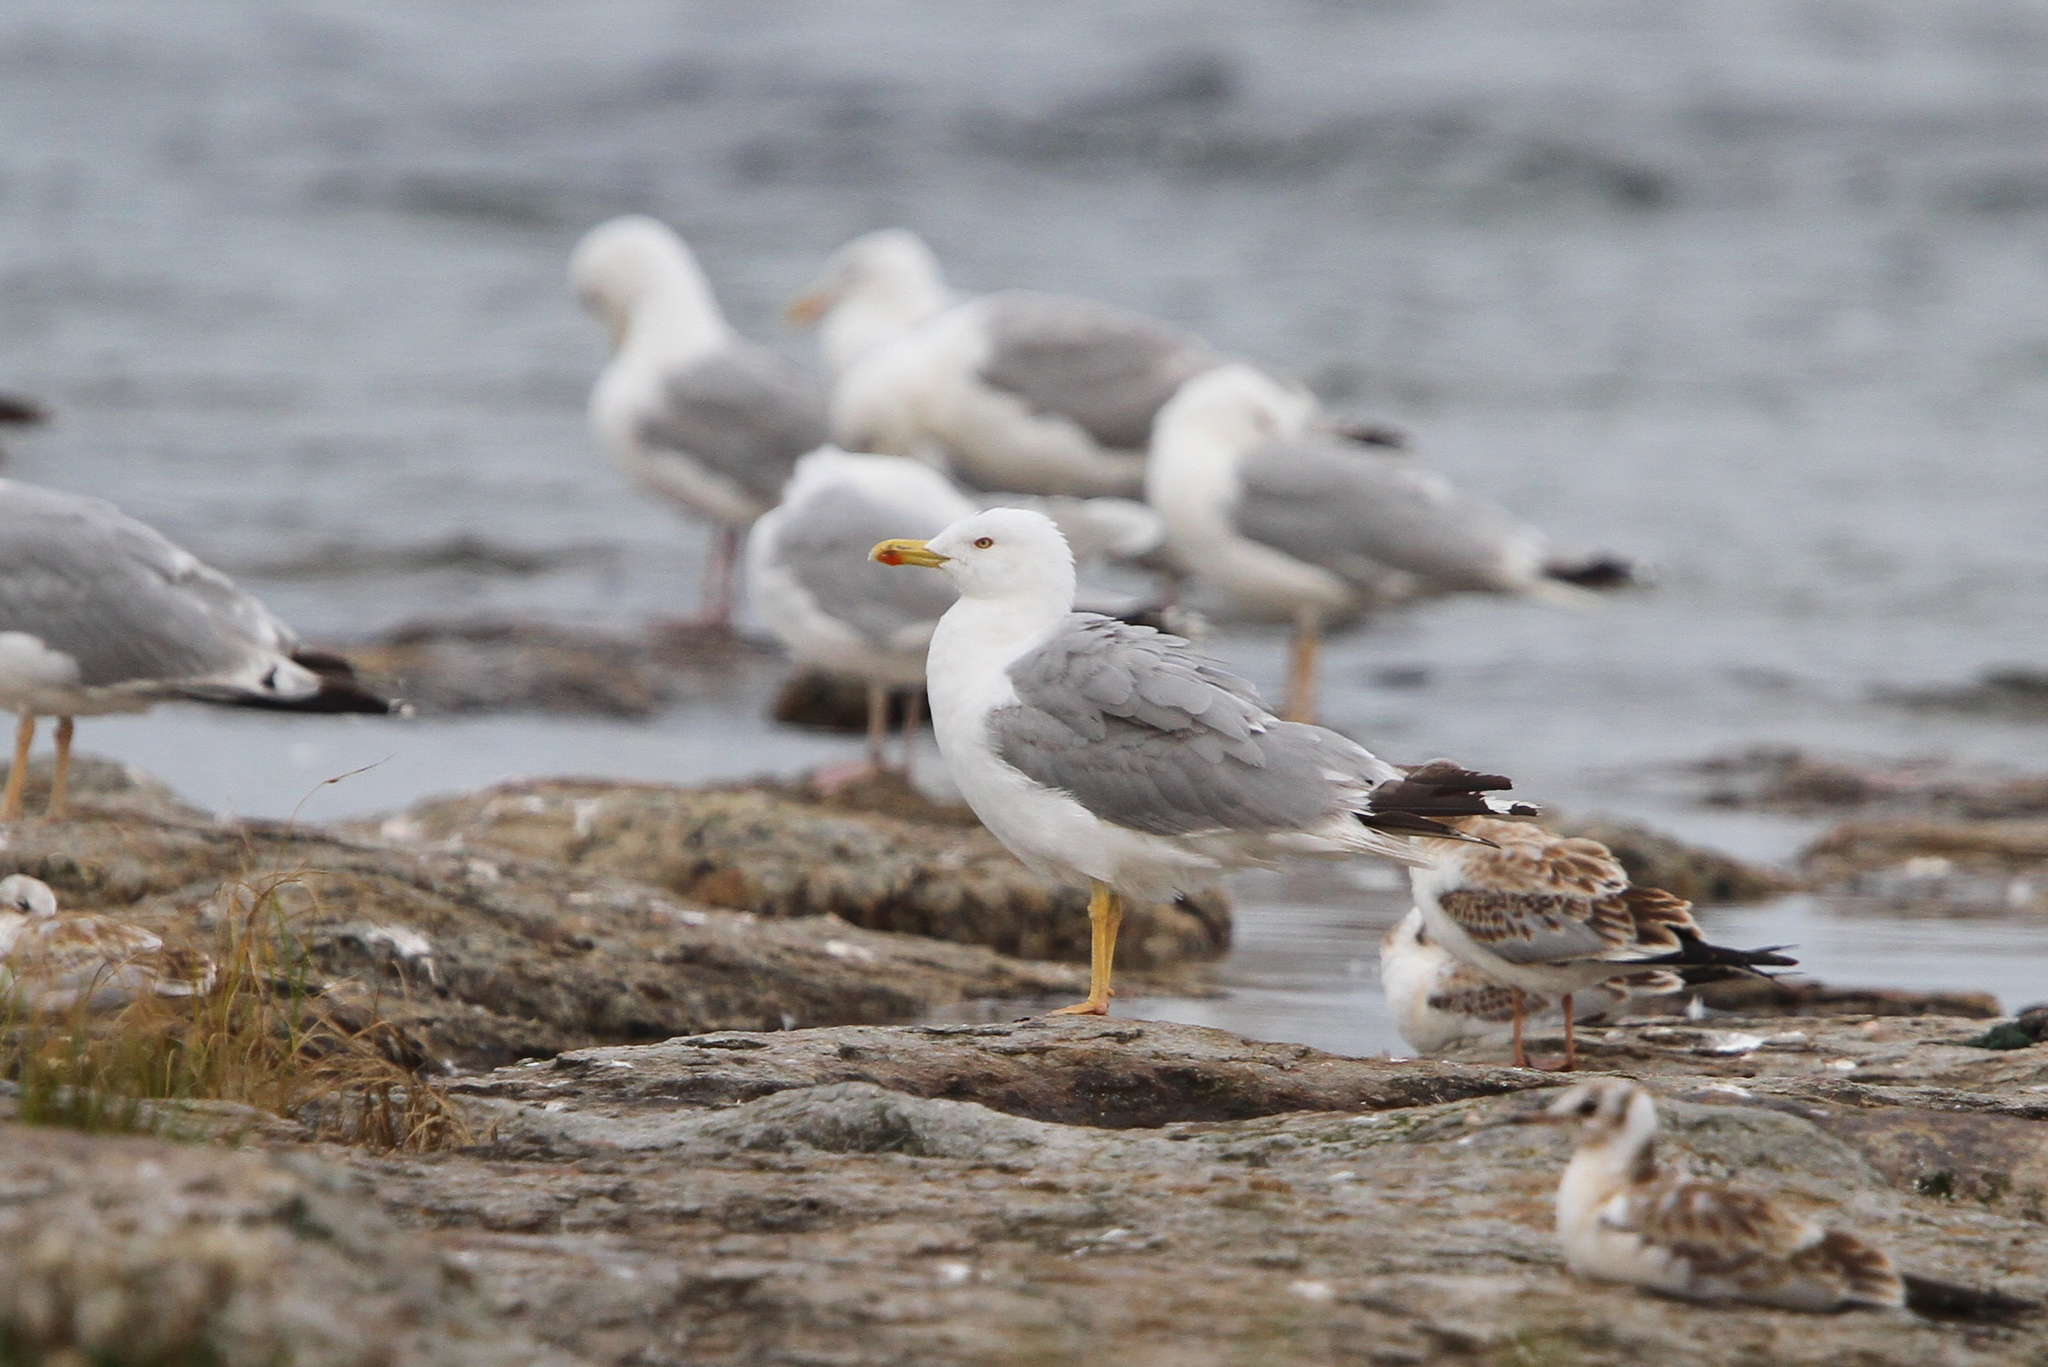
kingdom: Animalia
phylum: Chordata
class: Aves
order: Charadriiformes
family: Laridae
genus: Larus
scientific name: Larus michahellis
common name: Yellow-legged gull
